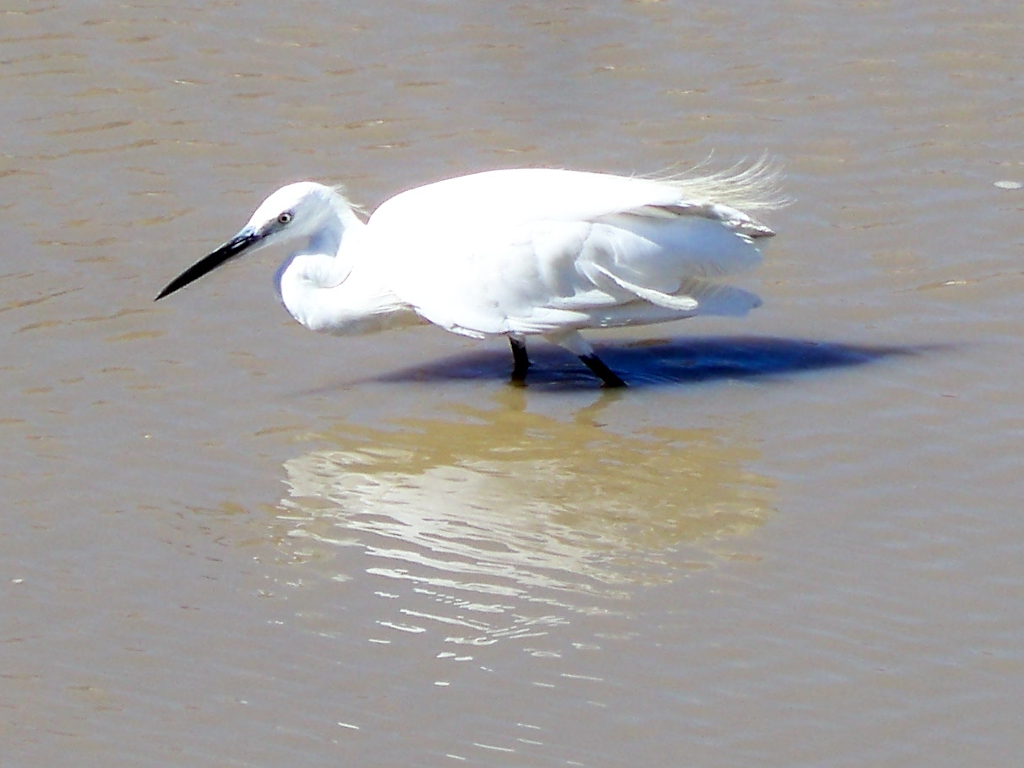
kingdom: Animalia
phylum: Chordata
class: Aves
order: Pelecaniformes
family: Ardeidae
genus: Egretta
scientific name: Egretta garzetta
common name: Little egret
